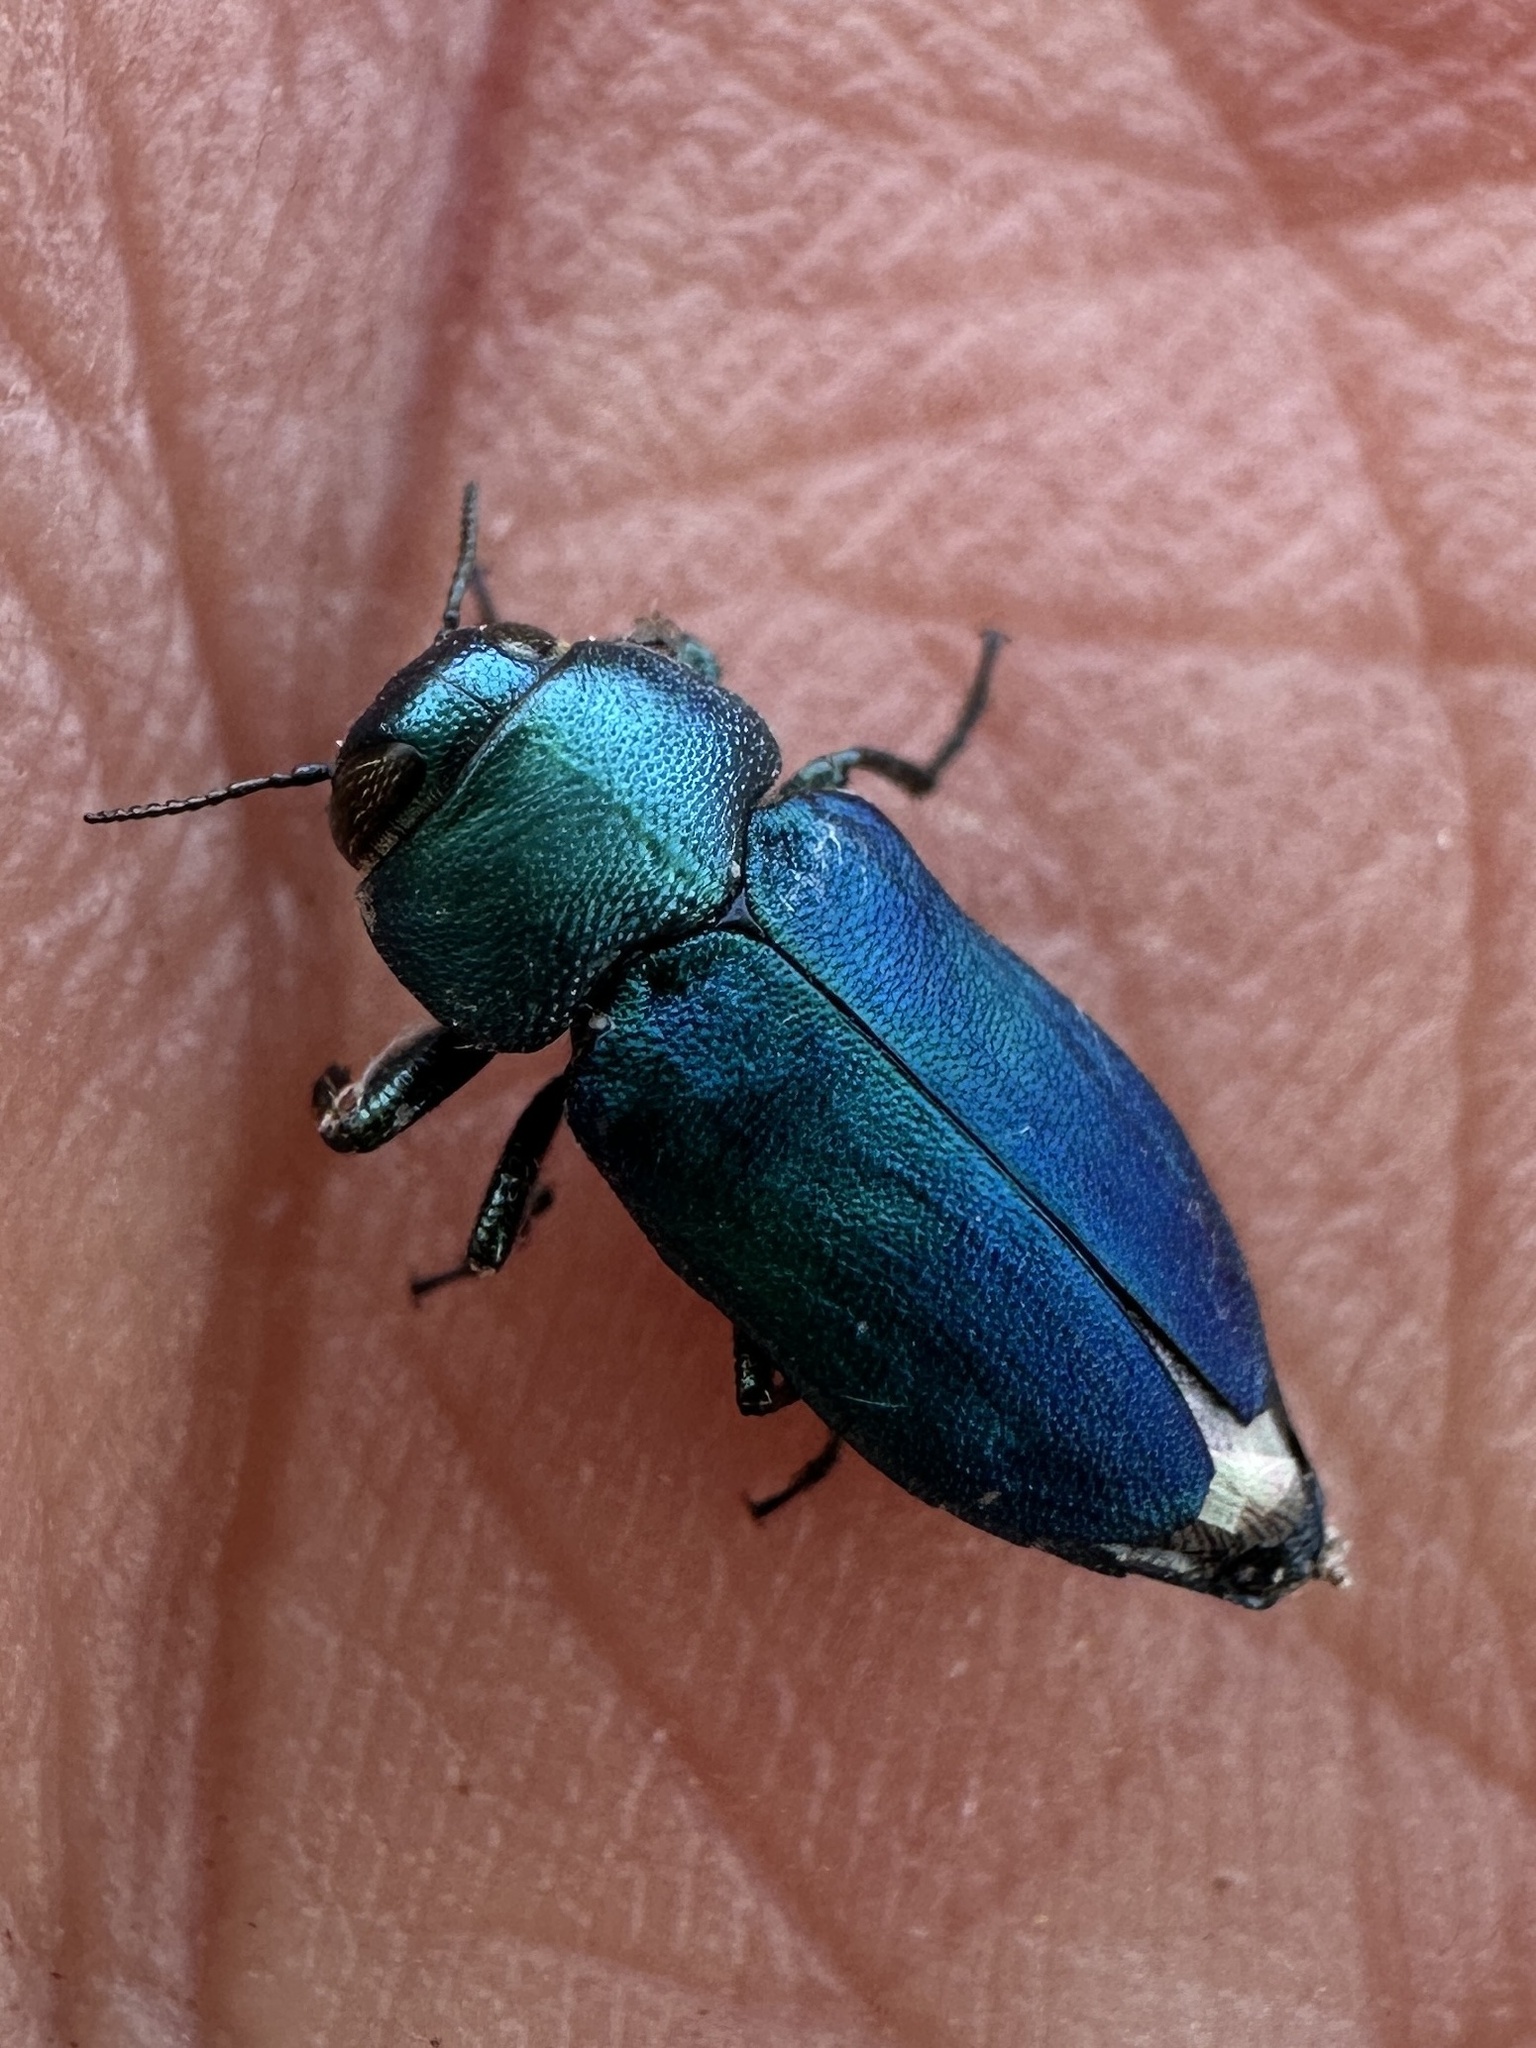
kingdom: Animalia
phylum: Arthropoda
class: Insecta
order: Coleoptera
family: Buprestidae
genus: Sphaerobothris
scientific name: Sphaerobothris platti
